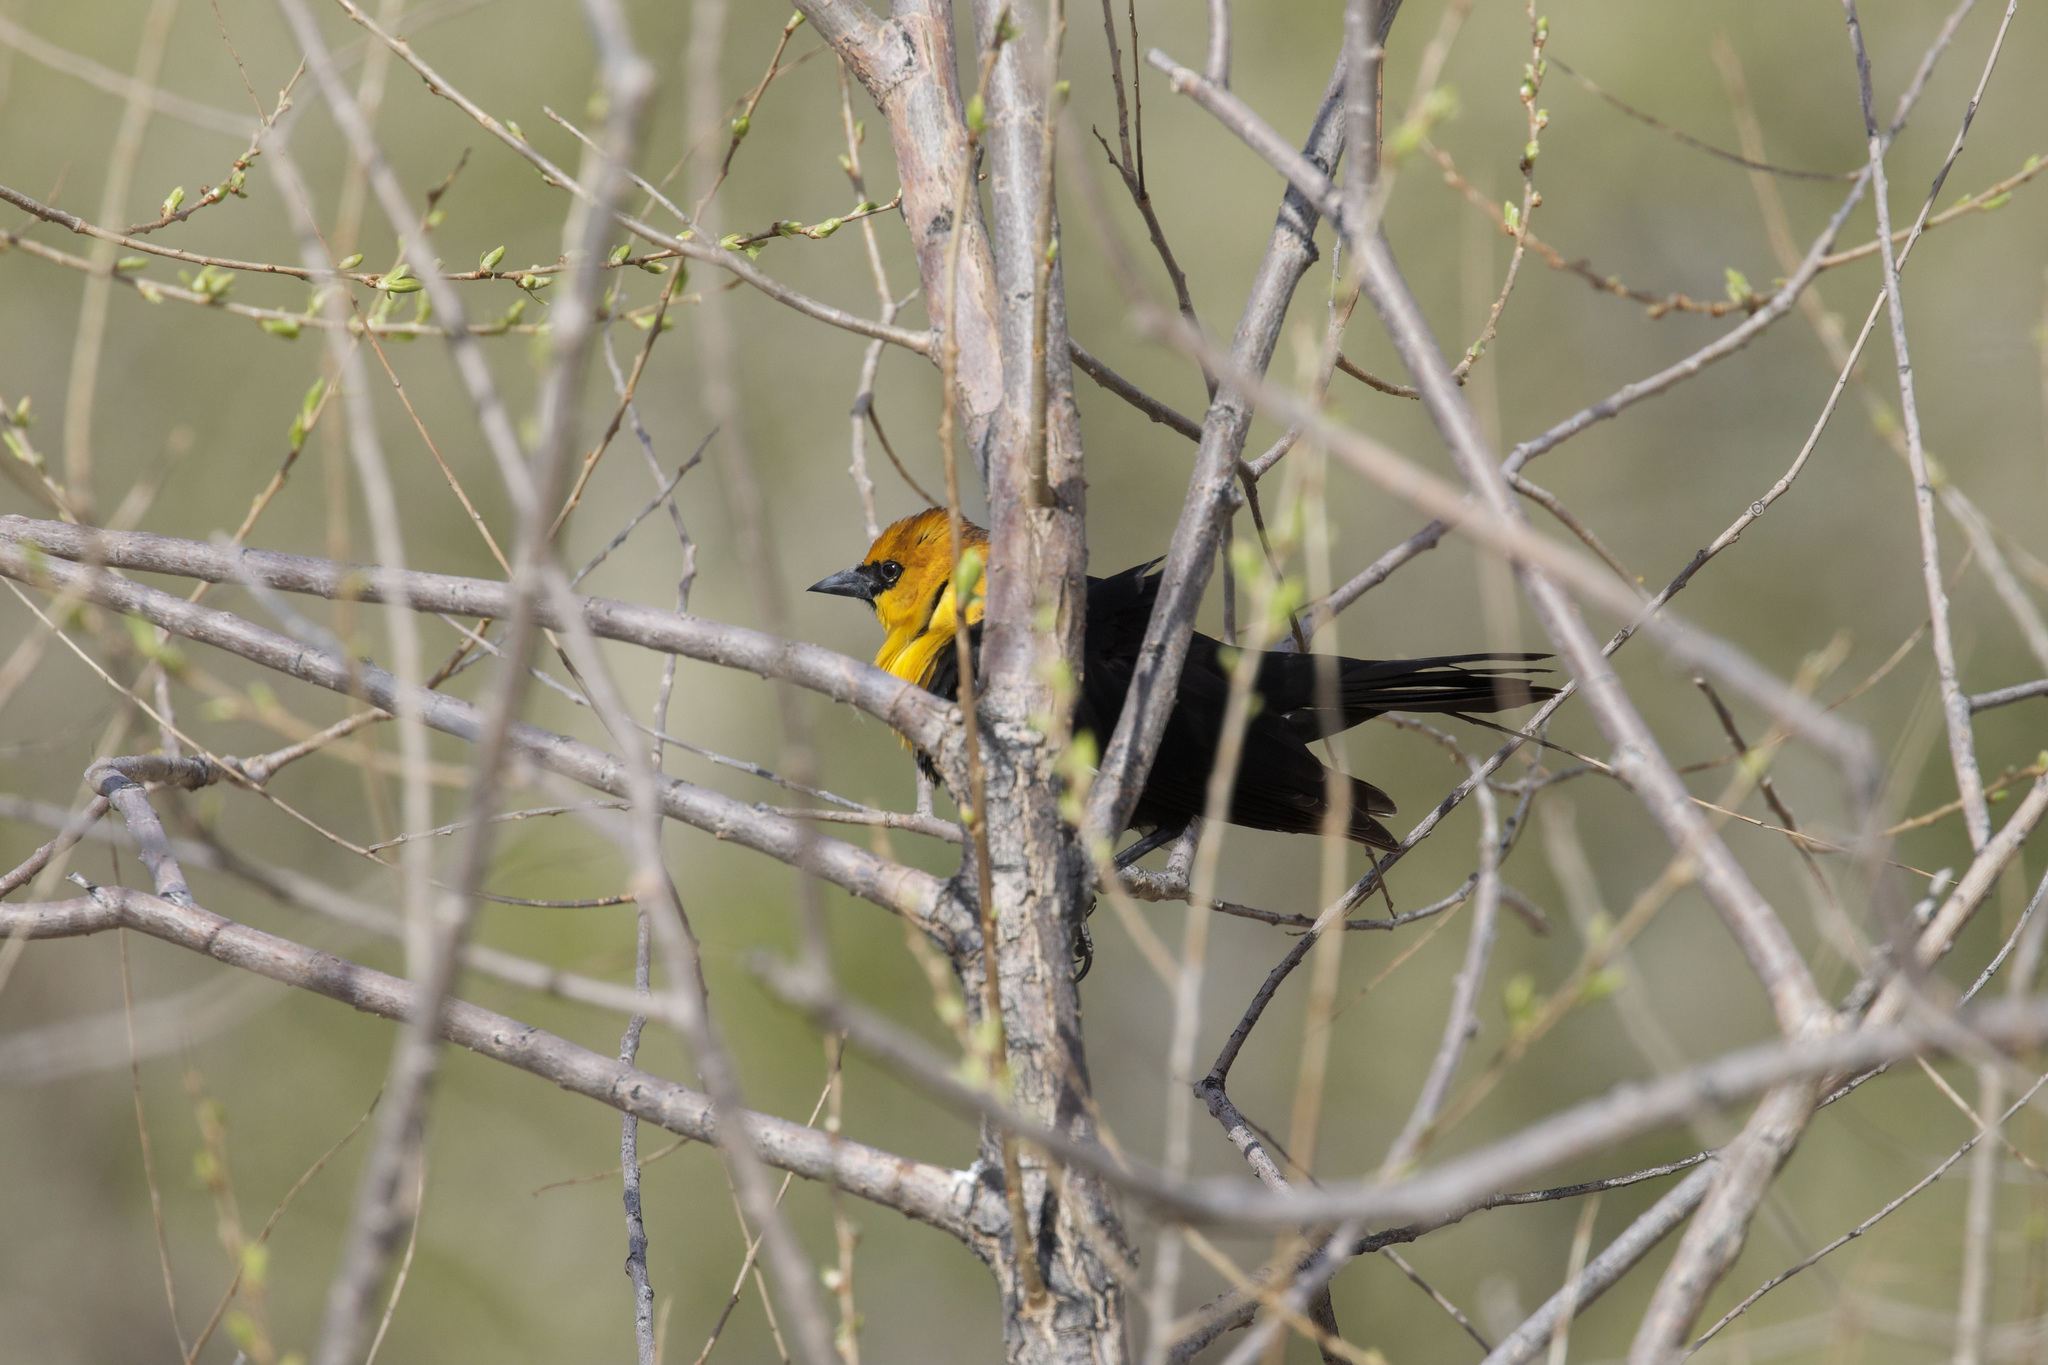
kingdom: Animalia
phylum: Chordata
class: Aves
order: Passeriformes
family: Icteridae
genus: Xanthocephalus
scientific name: Xanthocephalus xanthocephalus
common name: Yellow-headed blackbird
